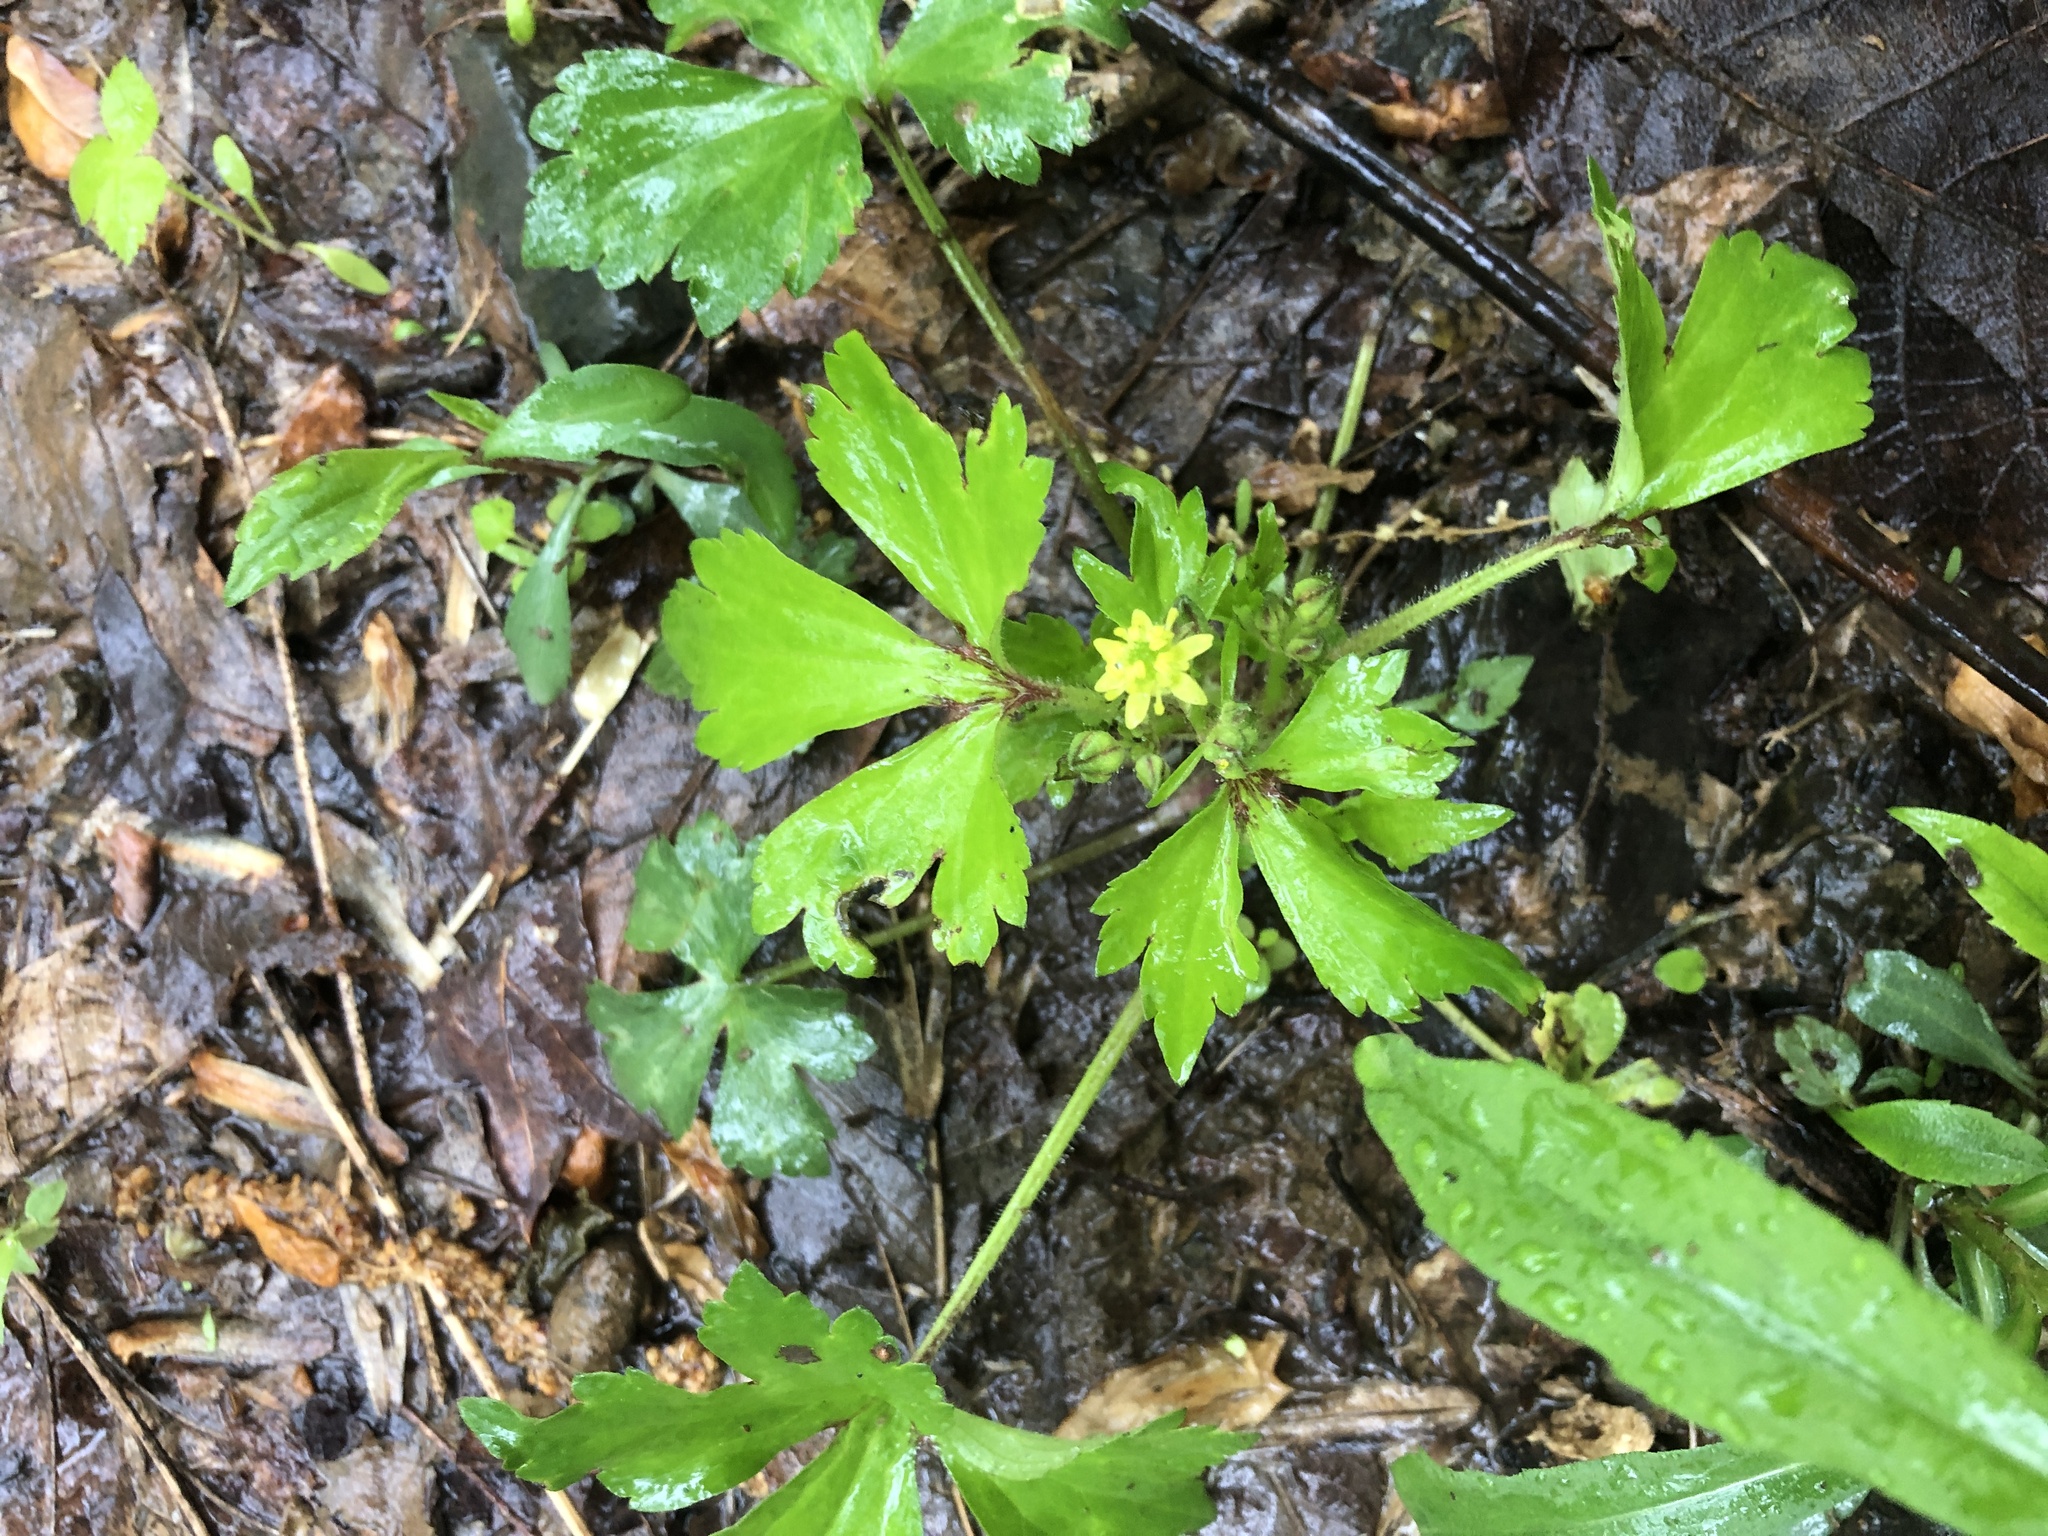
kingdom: Plantae
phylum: Tracheophyta
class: Magnoliopsida
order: Ranunculales
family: Ranunculaceae
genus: Ranunculus
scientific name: Ranunculus recurvatus
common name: Blisterwort
